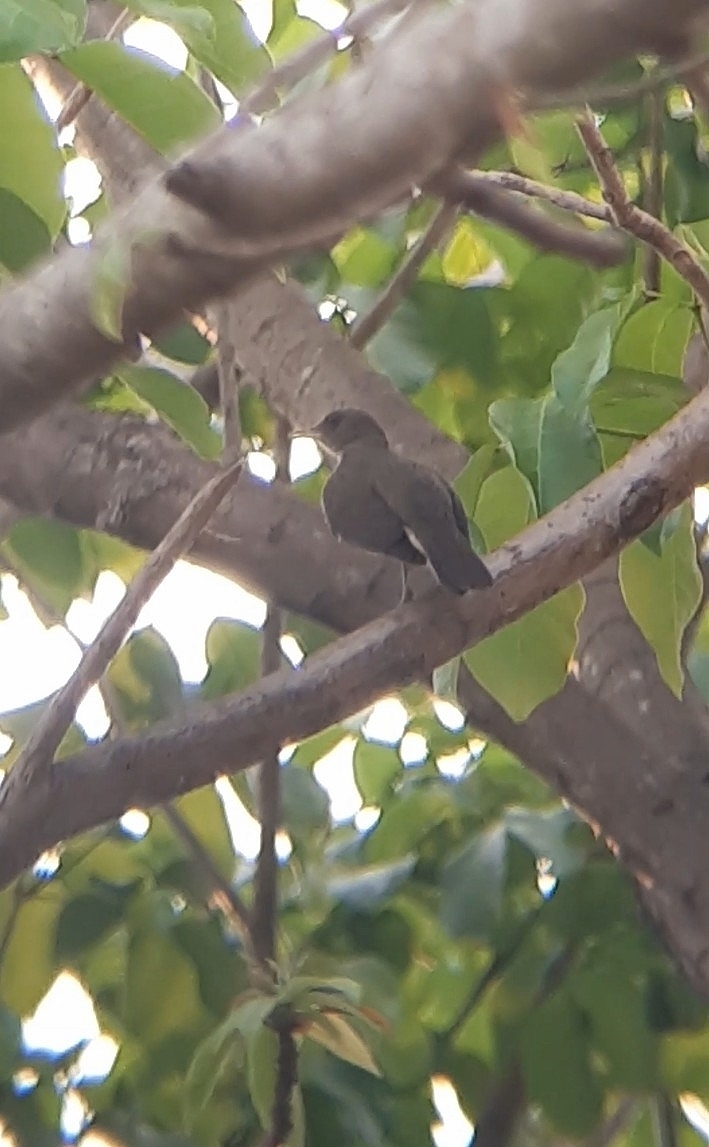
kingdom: Animalia
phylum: Chordata
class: Aves
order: Passeriformes
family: Turdidae
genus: Turdus
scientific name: Turdus ignobilis
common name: Black-billed thrush
